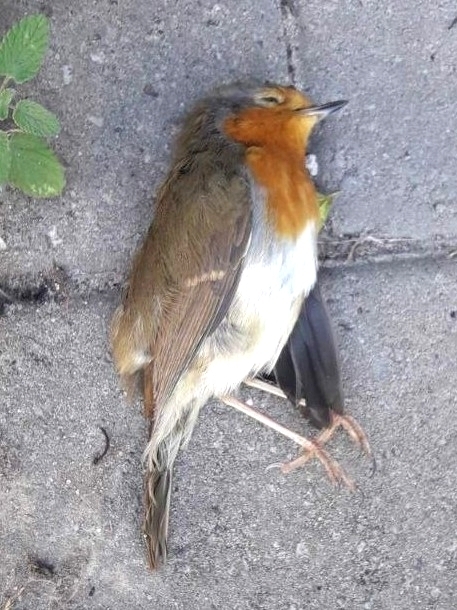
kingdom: Animalia
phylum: Chordata
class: Aves
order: Passeriformes
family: Muscicapidae
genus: Erithacus
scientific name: Erithacus rubecula
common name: European robin
